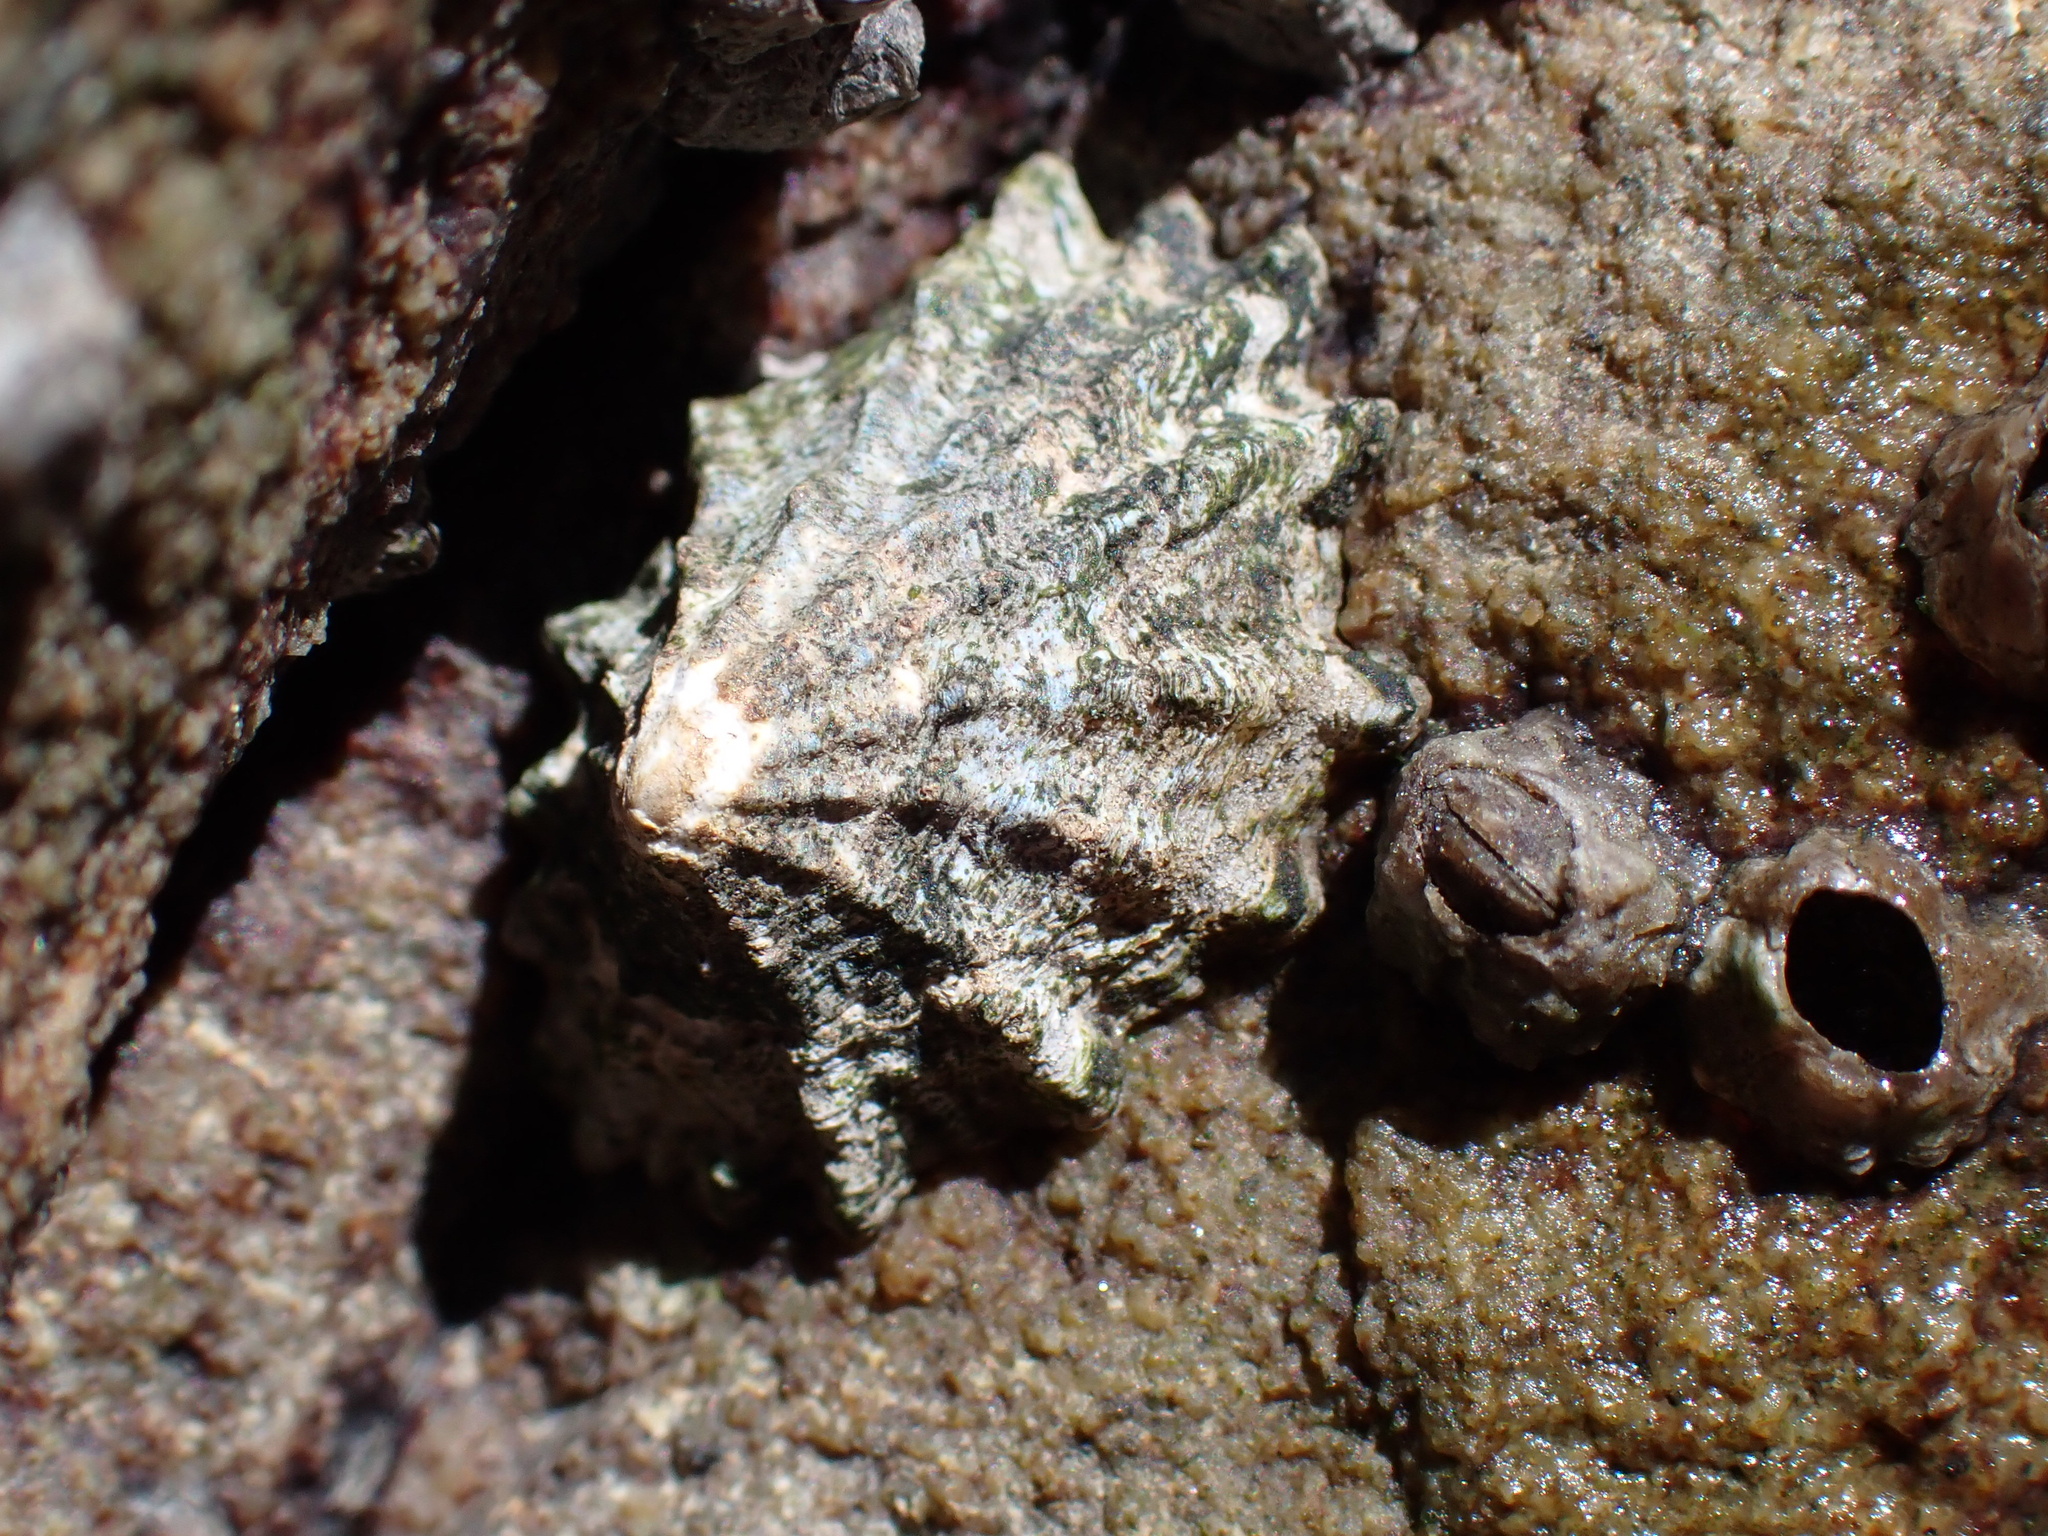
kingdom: Animalia
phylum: Mollusca
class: Gastropoda
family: Lottiidae
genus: Lottia
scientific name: Lottia scabra
